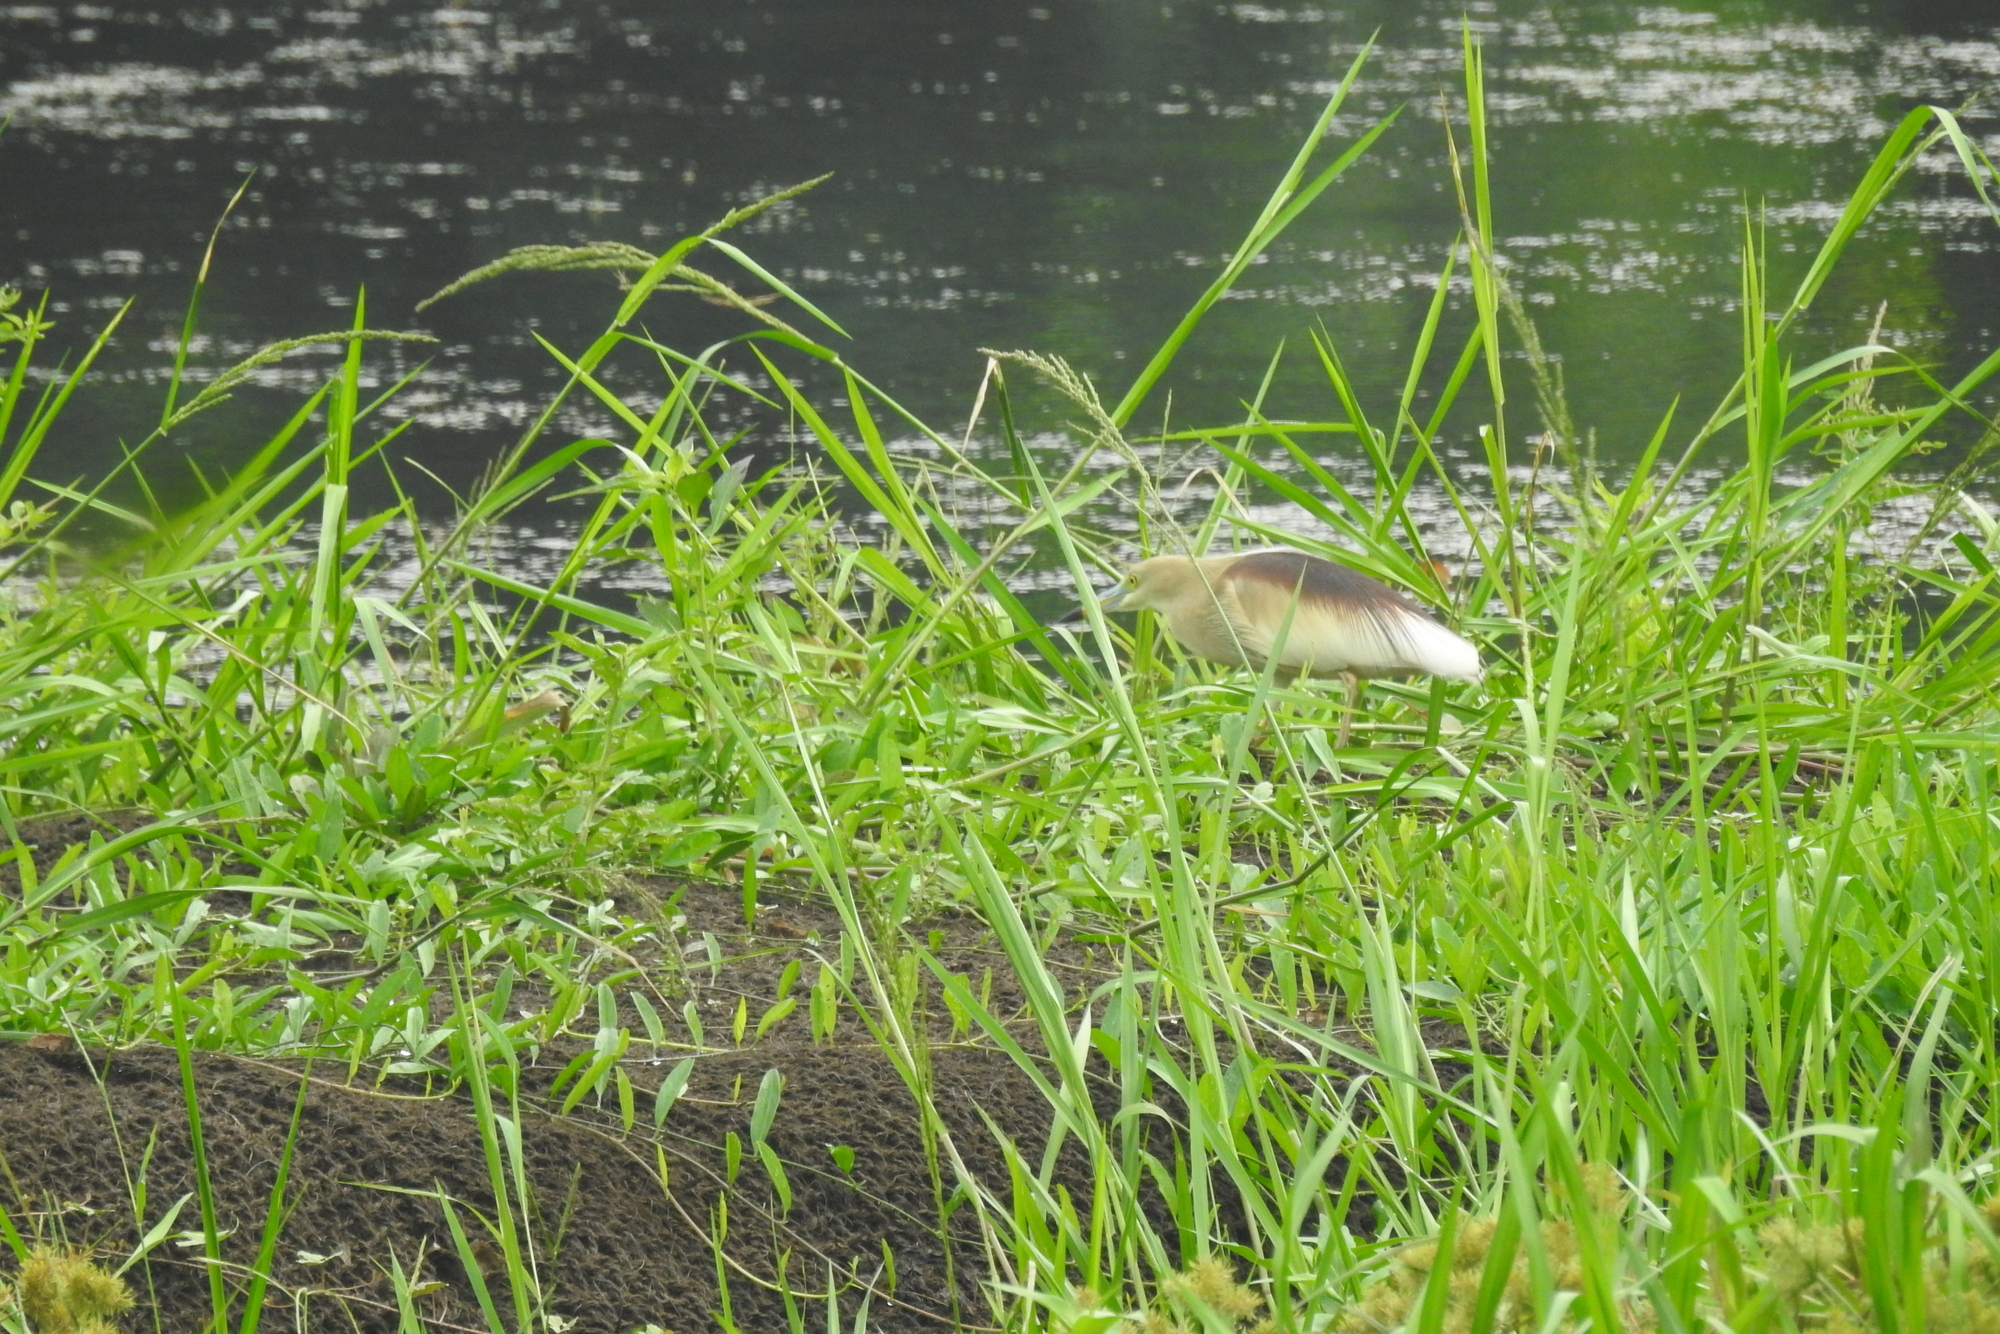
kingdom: Animalia
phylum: Chordata
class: Aves
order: Pelecaniformes
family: Ardeidae
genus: Ardeola
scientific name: Ardeola grayii
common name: Indian pond heron
